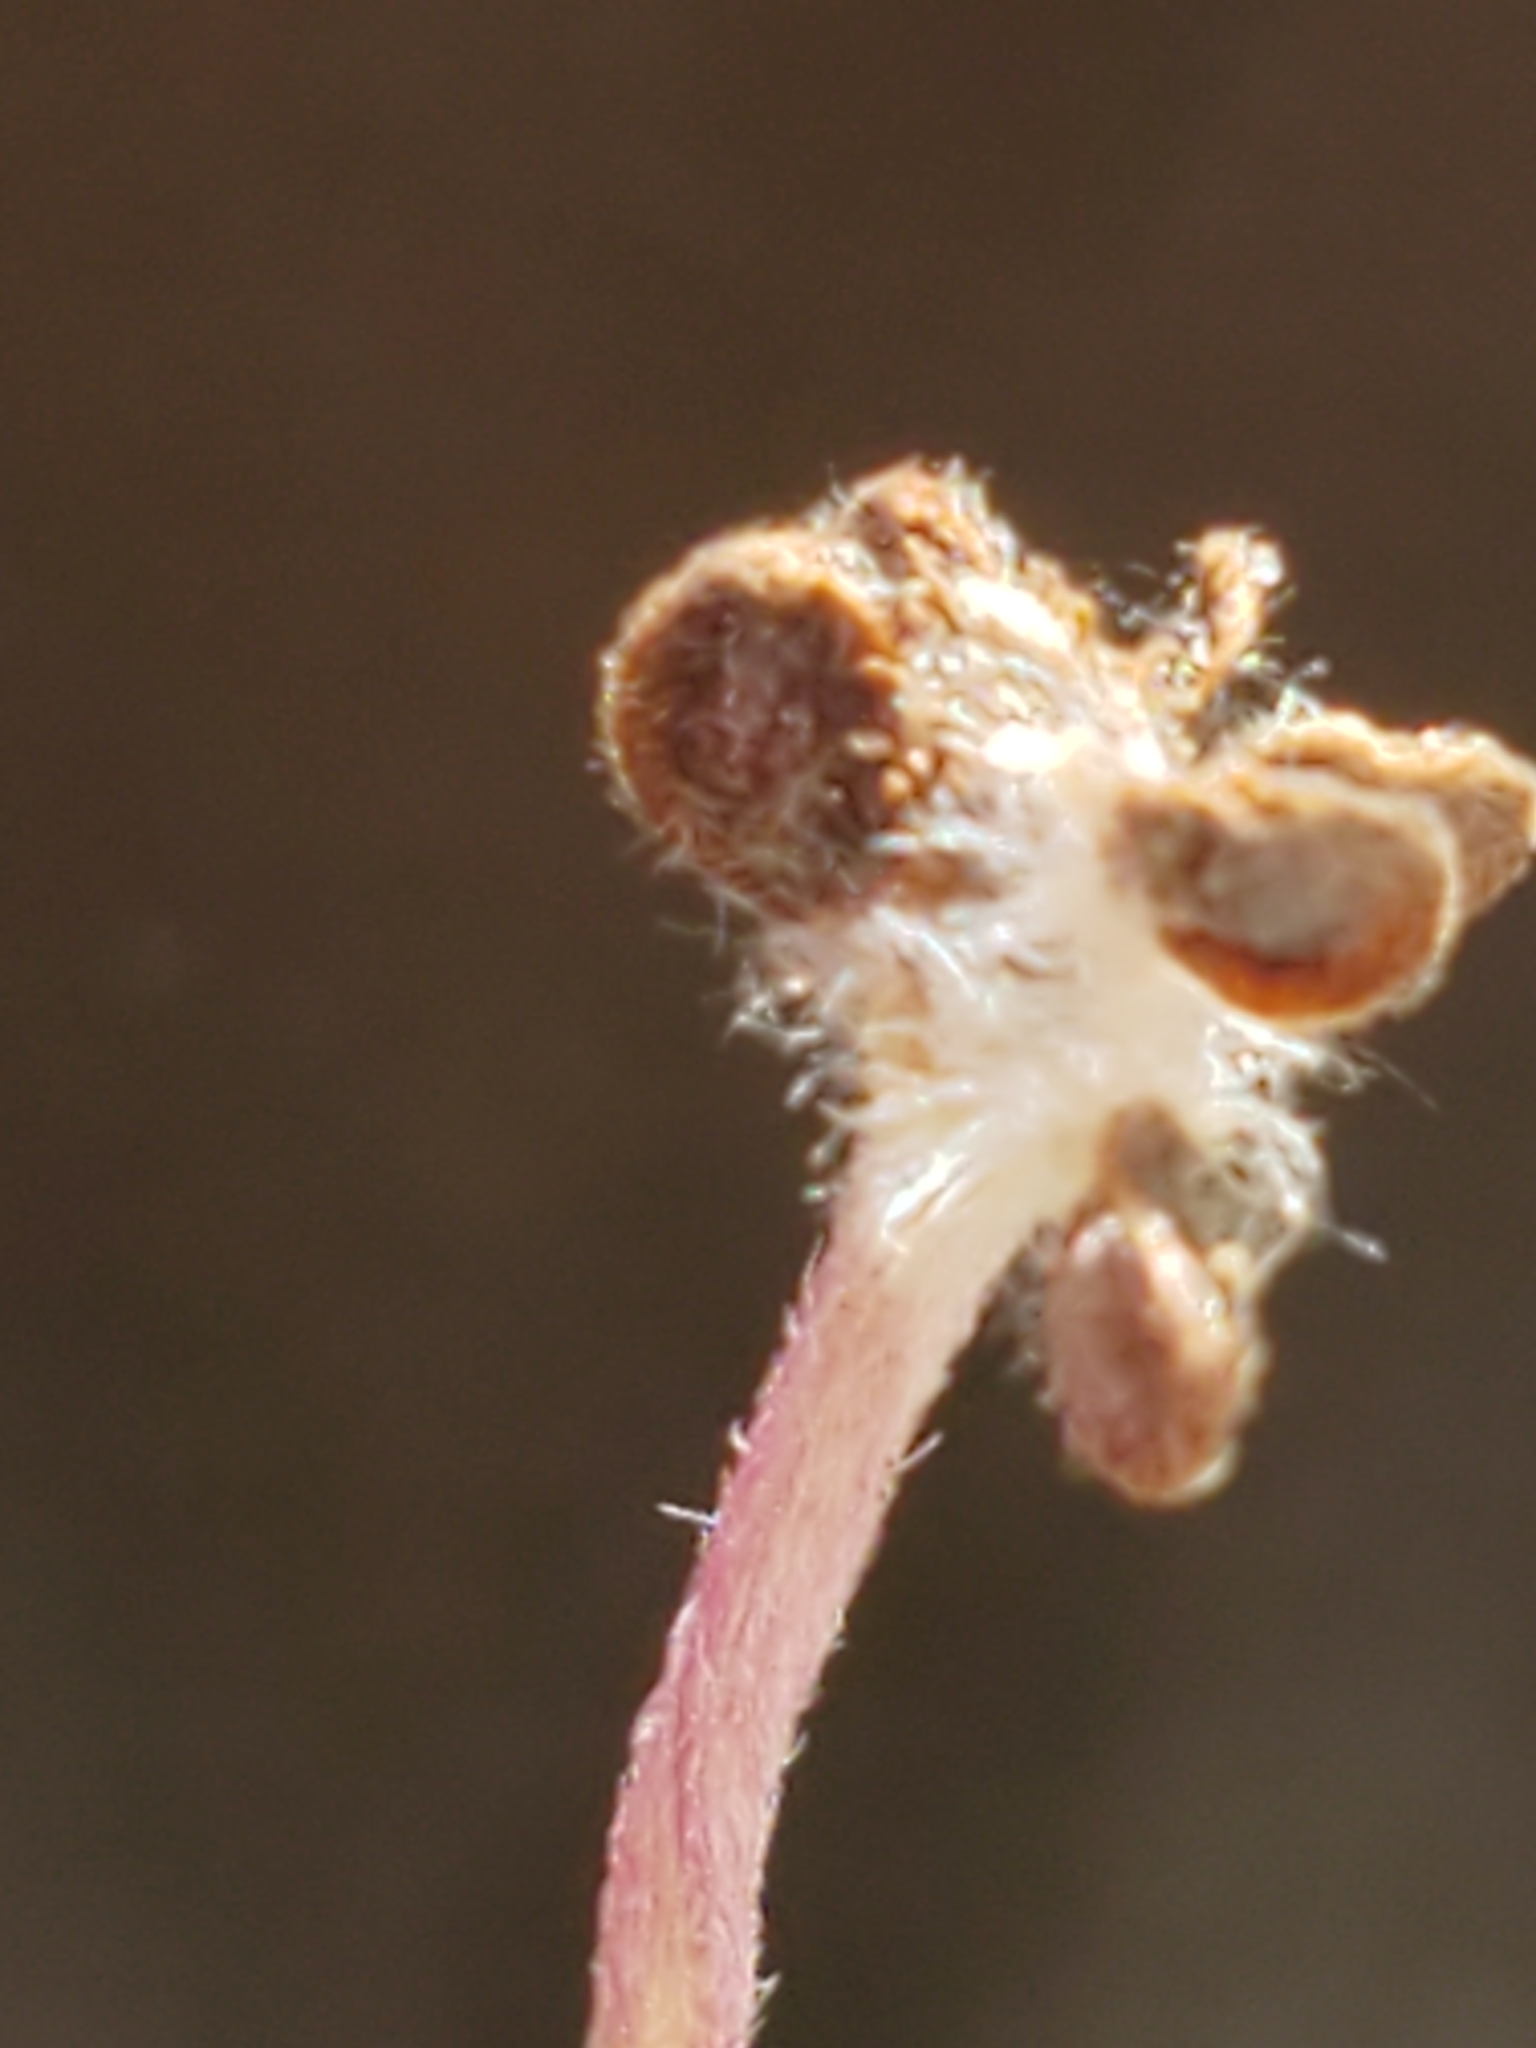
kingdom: Plantae
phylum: Tracheophyta
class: Magnoliopsida
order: Ranunculales
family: Ranunculaceae
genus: Anemone
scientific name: Anemone edwardsiana
